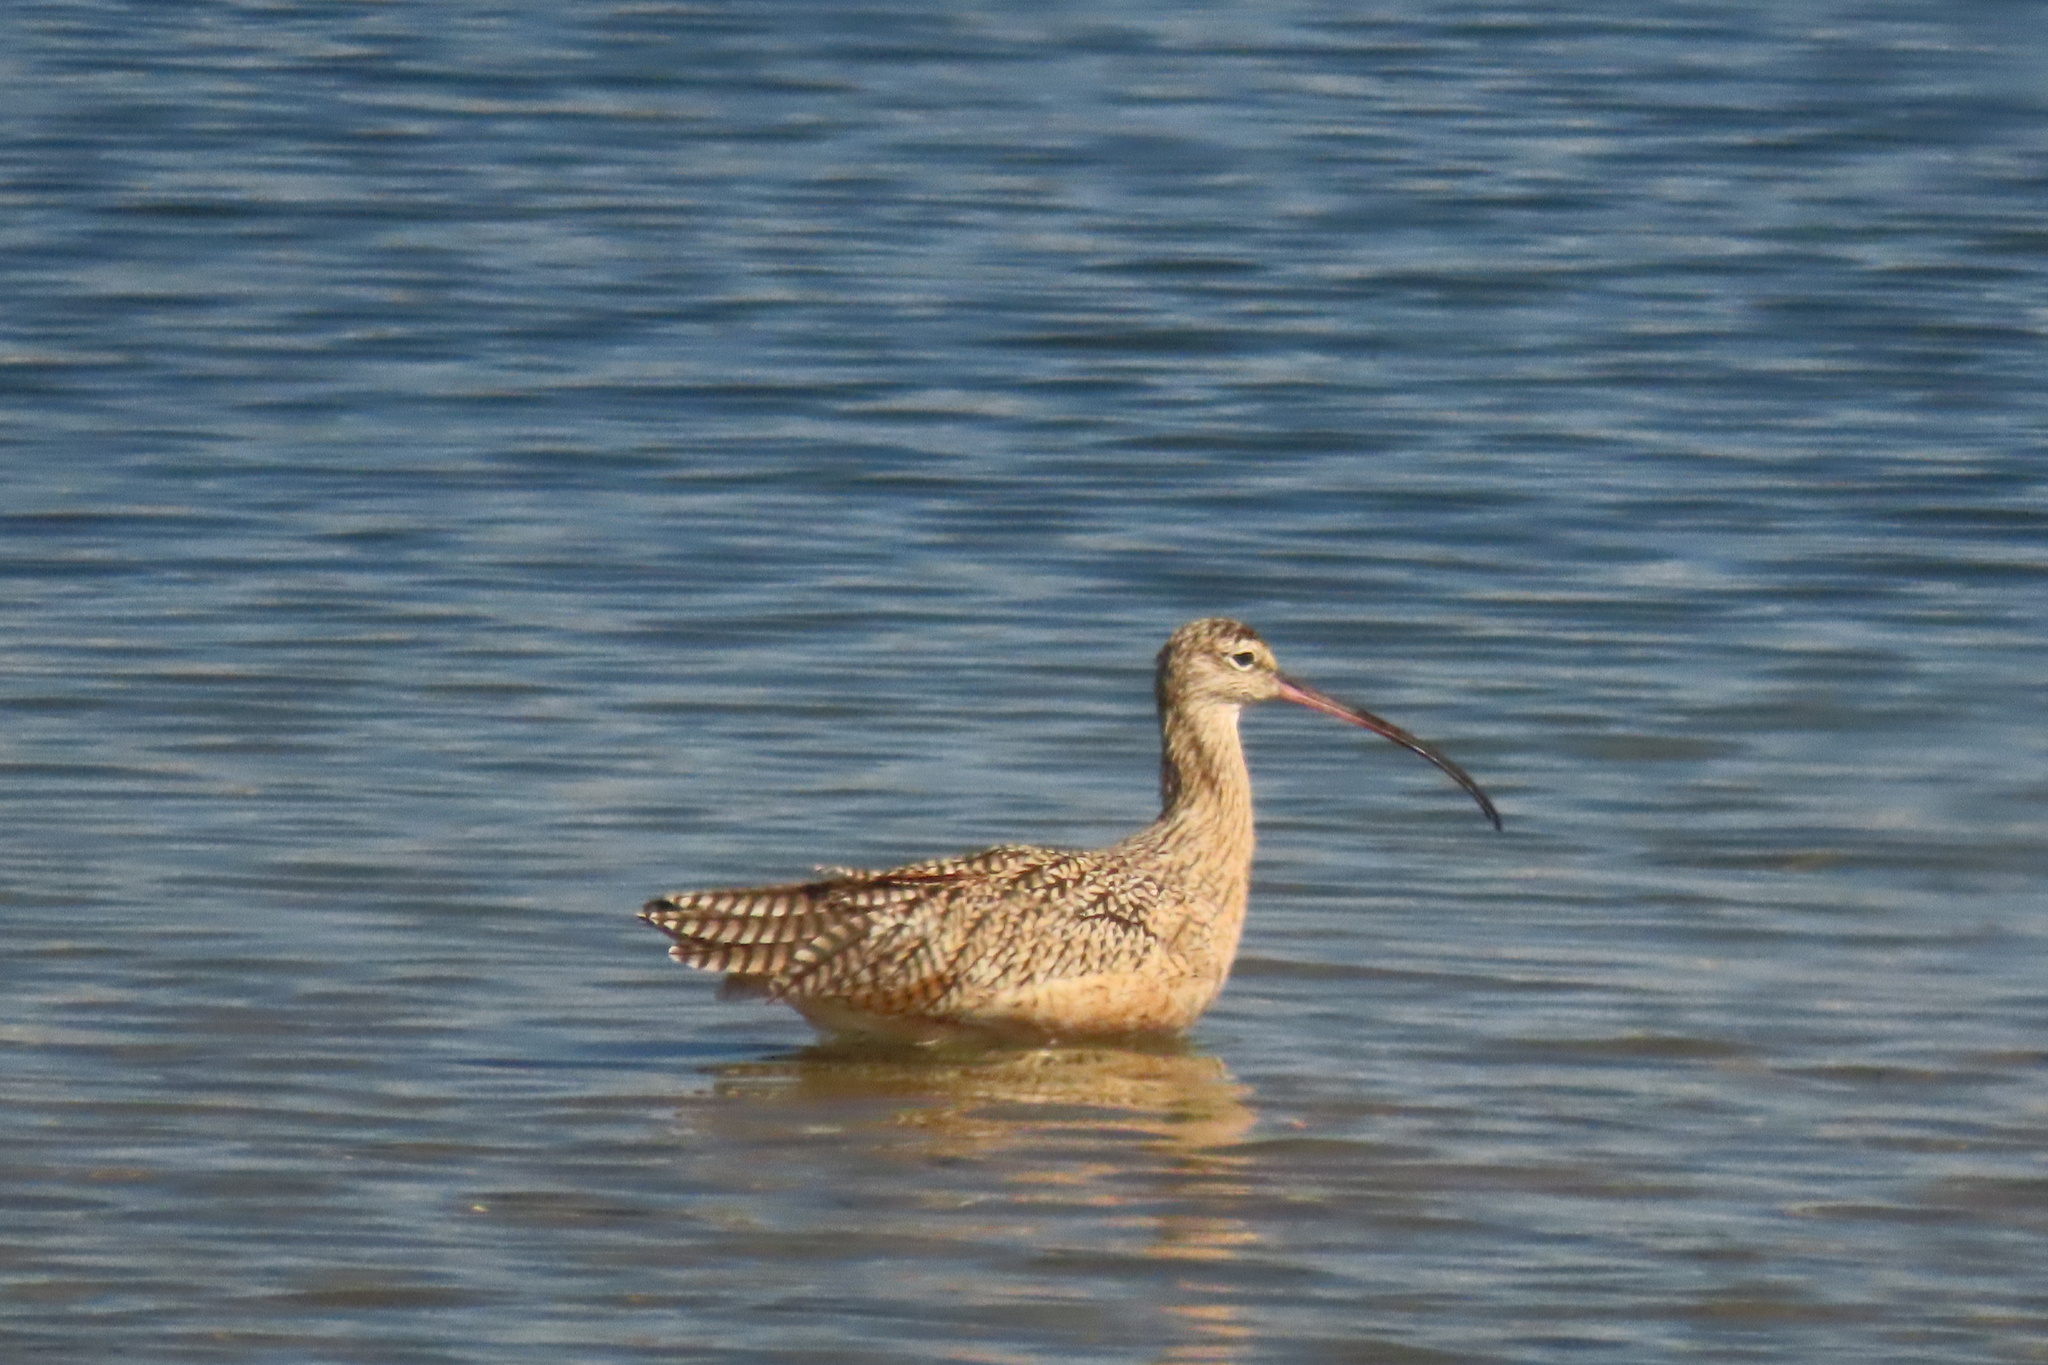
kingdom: Animalia
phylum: Chordata
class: Aves
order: Charadriiformes
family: Scolopacidae
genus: Numenius
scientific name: Numenius americanus
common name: Long-billed curlew
